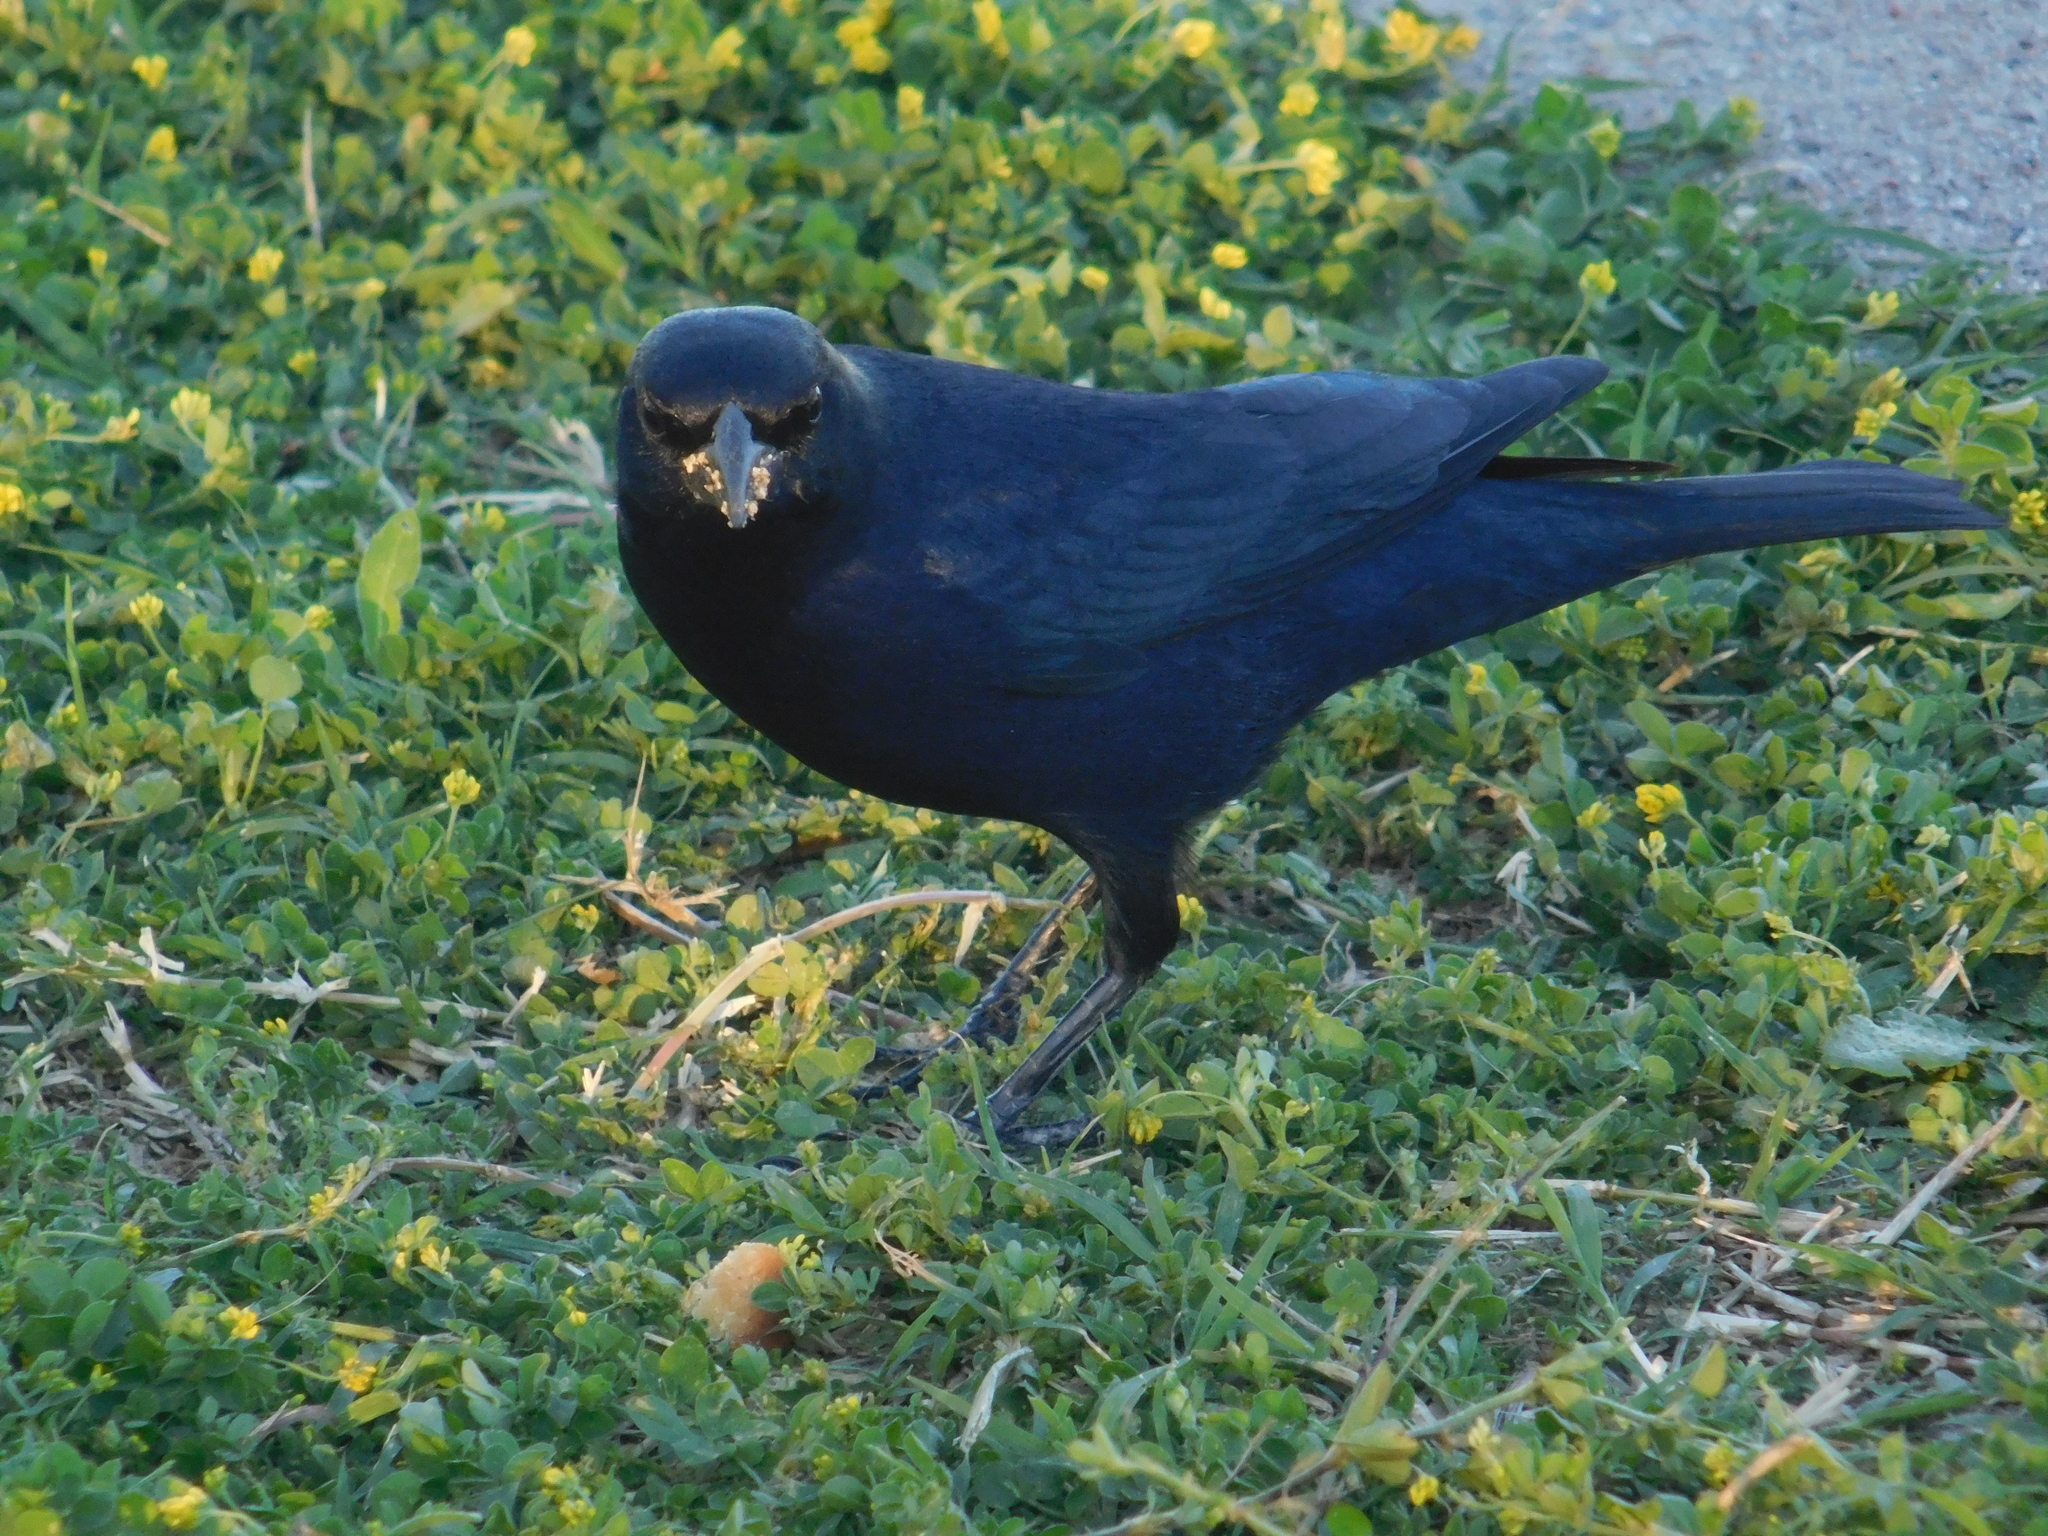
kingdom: Animalia
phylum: Chordata
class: Aves
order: Passeriformes
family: Icteridae
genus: Molothrus
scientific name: Molothrus bonariensis
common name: Shiny cowbird
